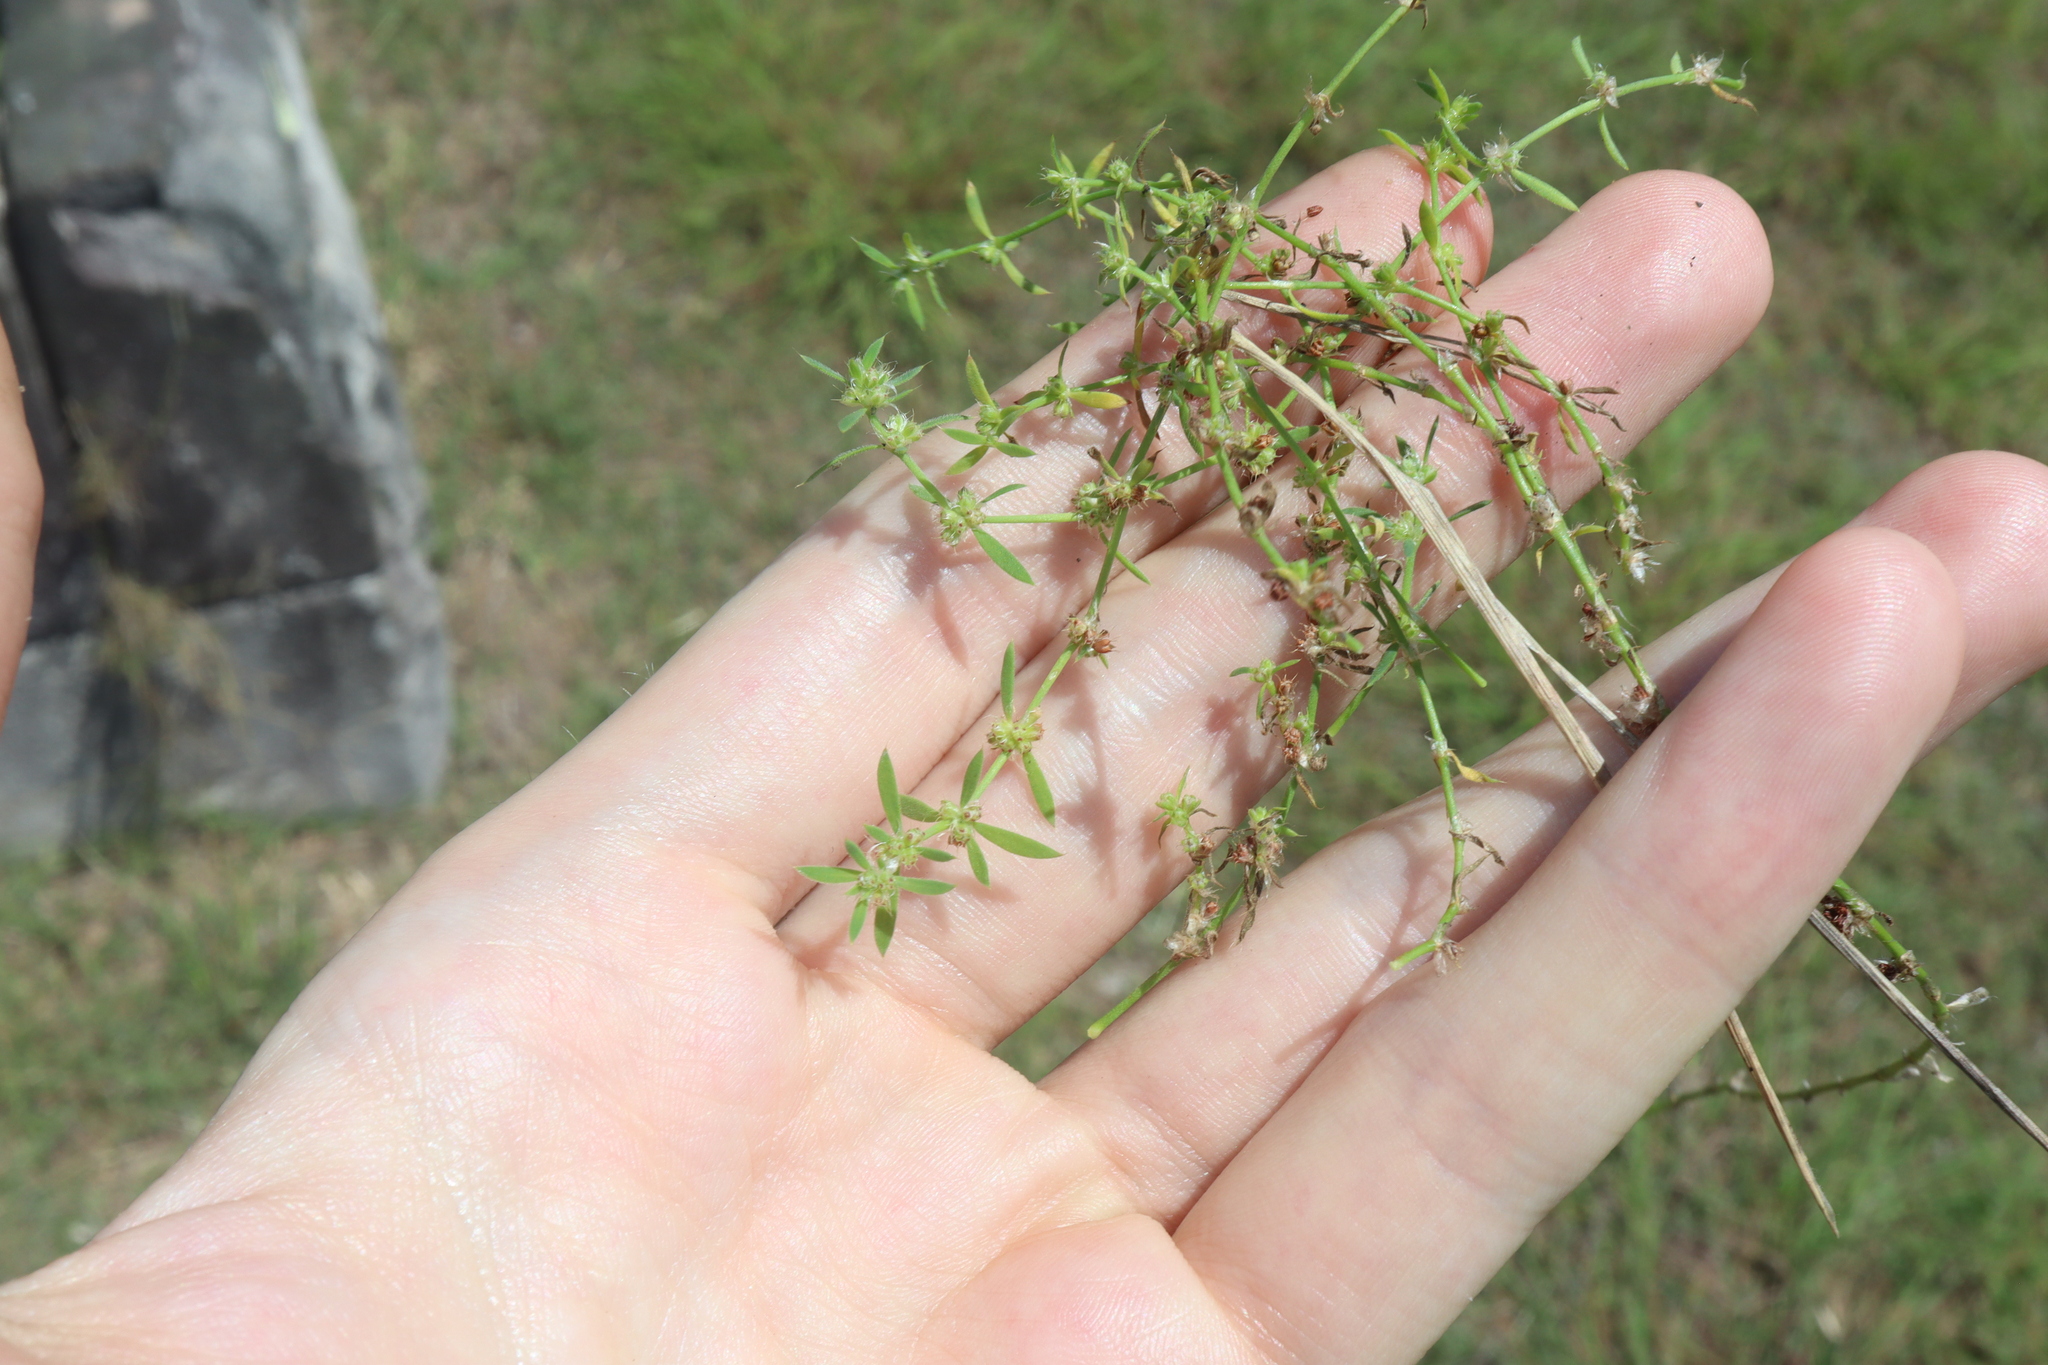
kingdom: Plantae
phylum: Tracheophyta
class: Magnoliopsida
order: Caryophyllales
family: Caryophyllaceae
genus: Paronychia
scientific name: Paronychia brasiliana
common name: Brazilian whitlow
